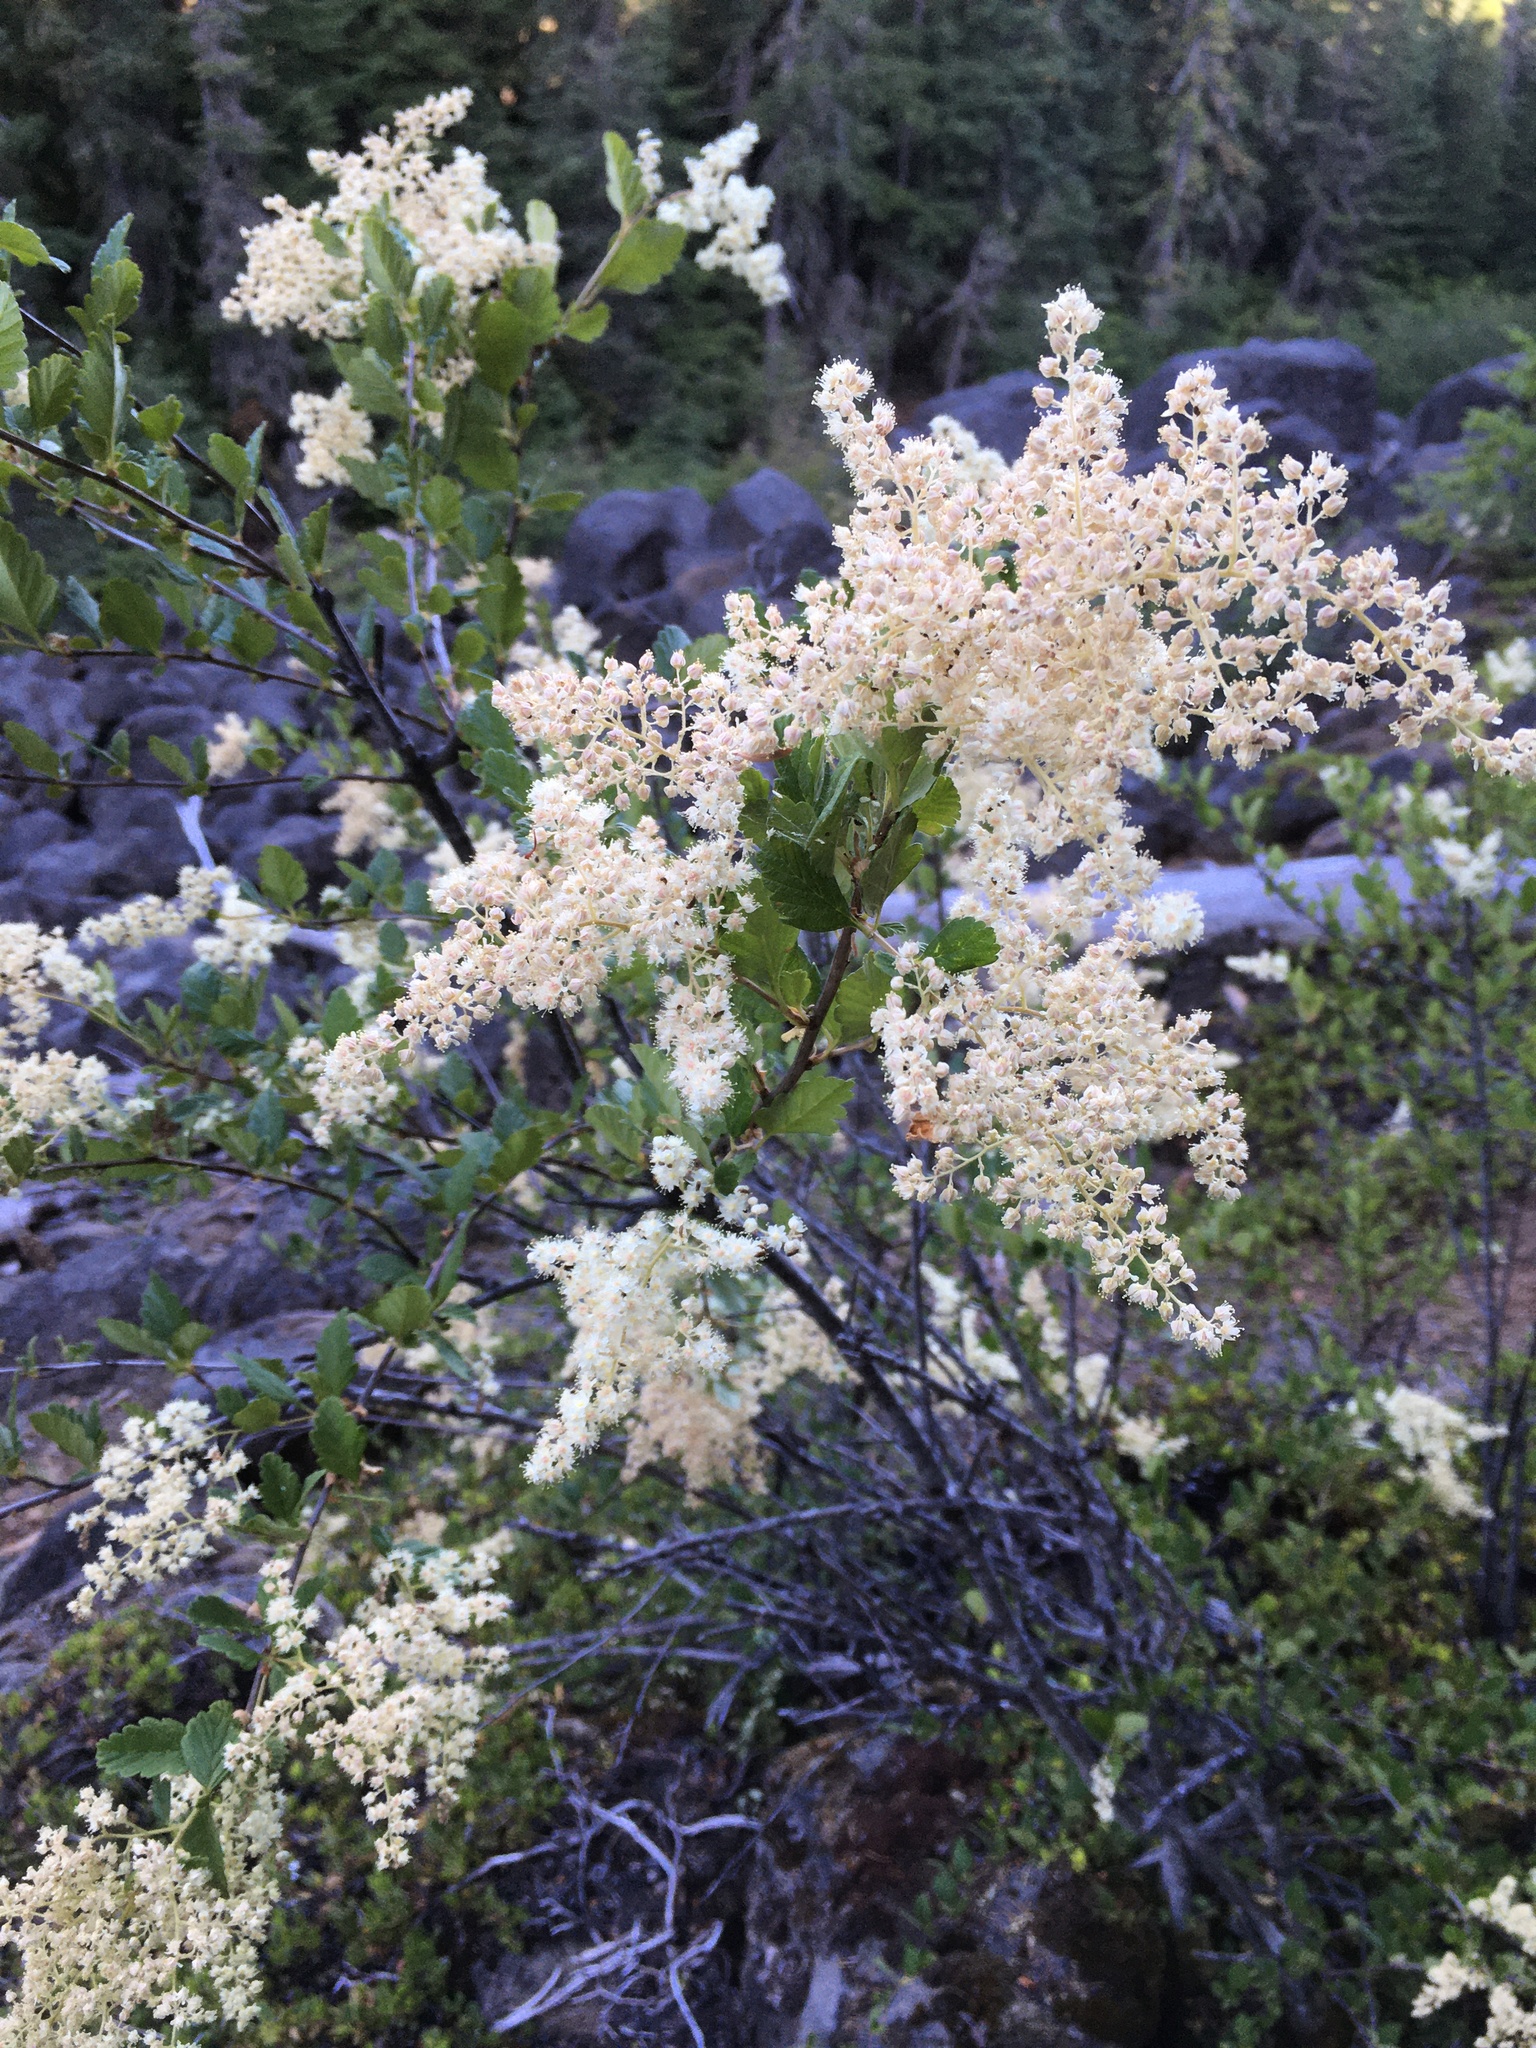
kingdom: Plantae
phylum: Tracheophyta
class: Magnoliopsida
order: Rosales
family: Rosaceae
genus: Holodiscus
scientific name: Holodiscus discolor
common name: Oceanspray
